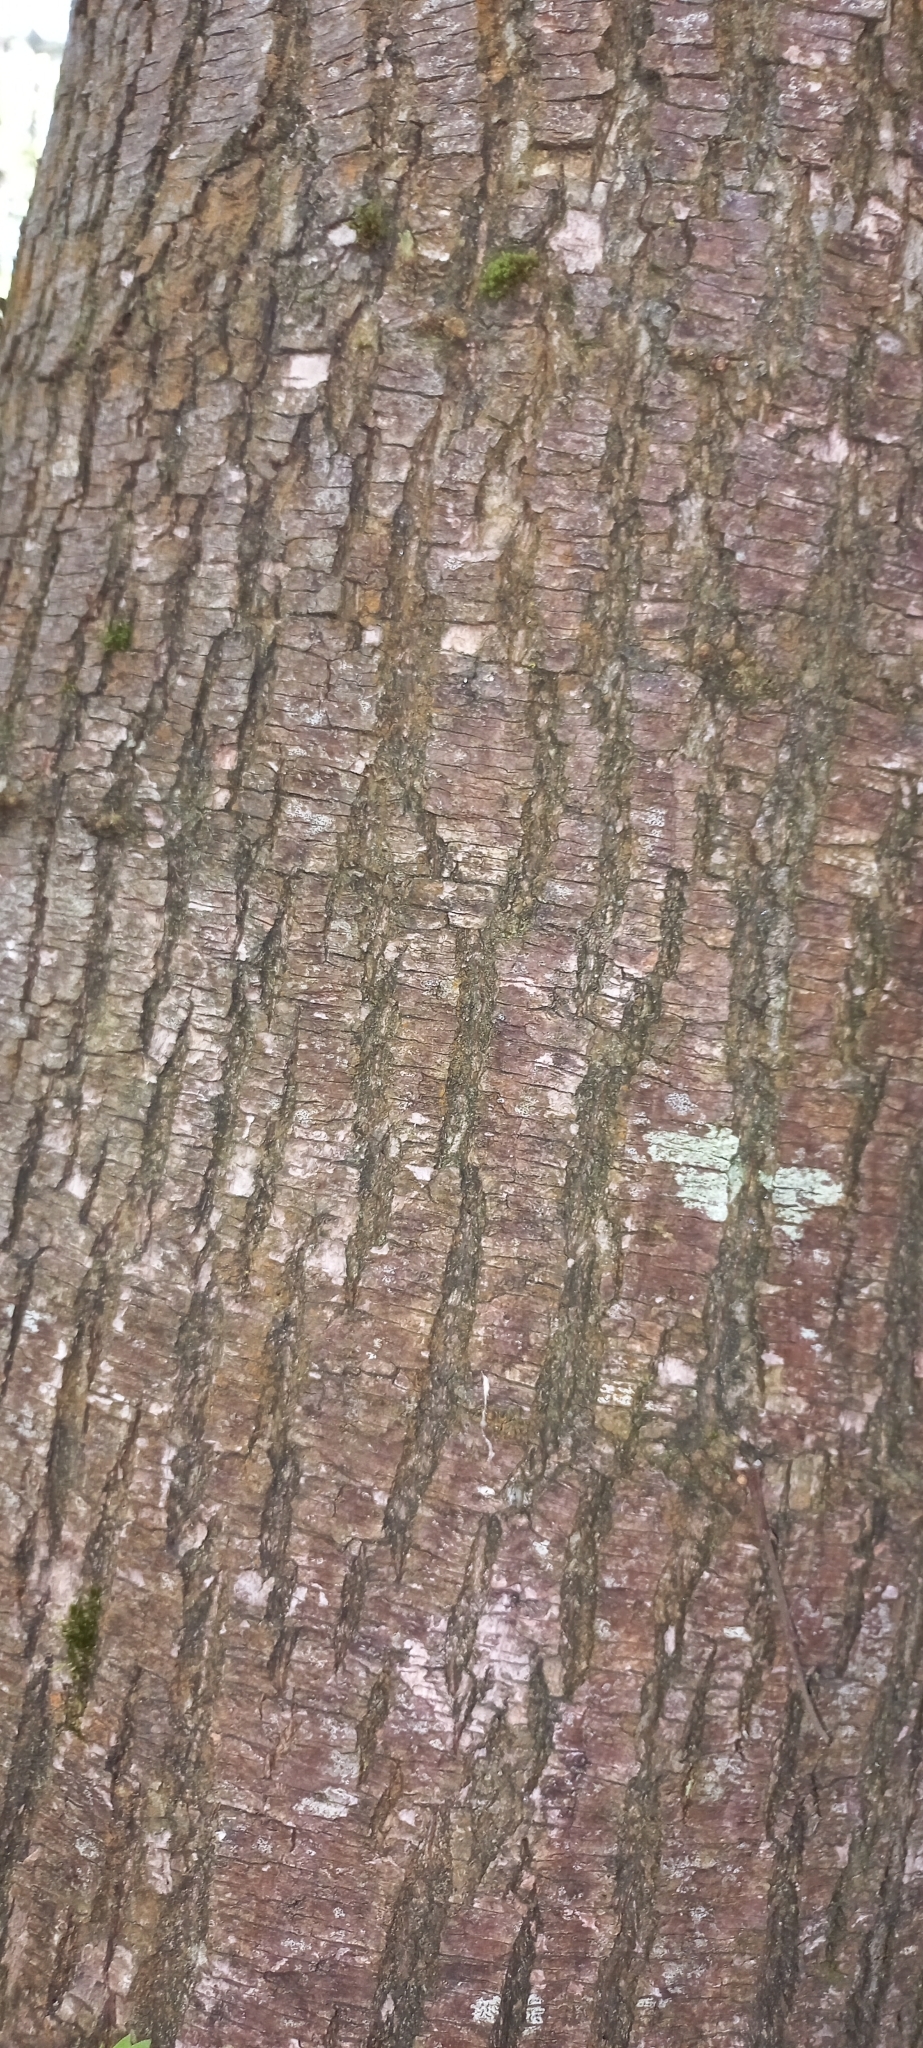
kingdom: Plantae
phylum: Tracheophyta
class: Magnoliopsida
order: Fagales
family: Fagaceae
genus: Castanea
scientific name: Castanea sativa
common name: Sweet chestnut
